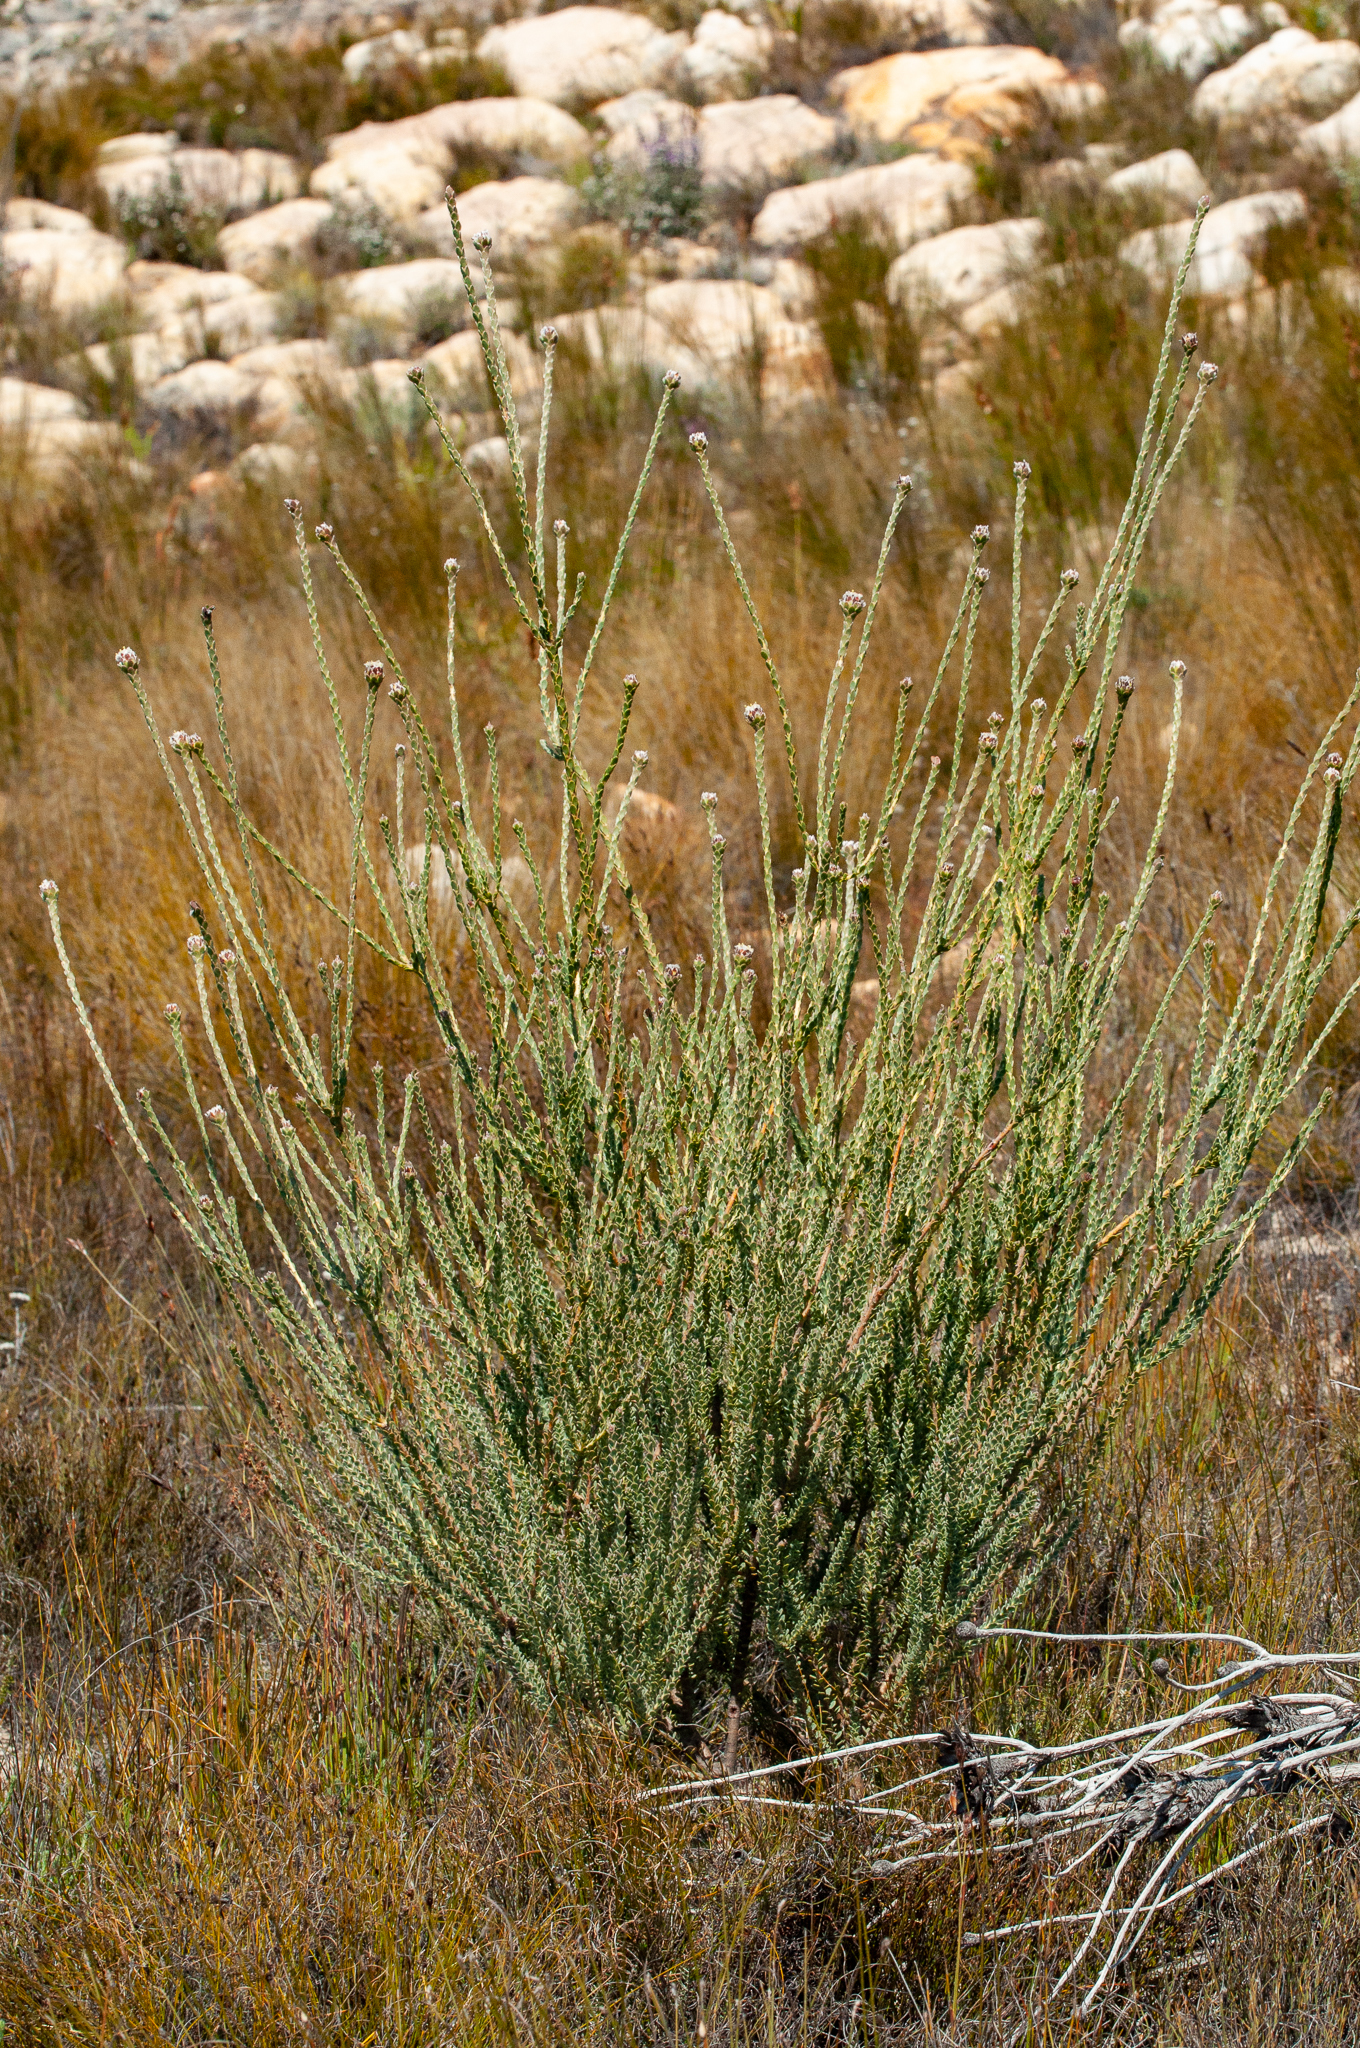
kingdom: Plantae
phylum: Tracheophyta
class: Magnoliopsida
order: Proteales
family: Proteaceae
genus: Leucadendron
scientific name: Leucadendron dubium
